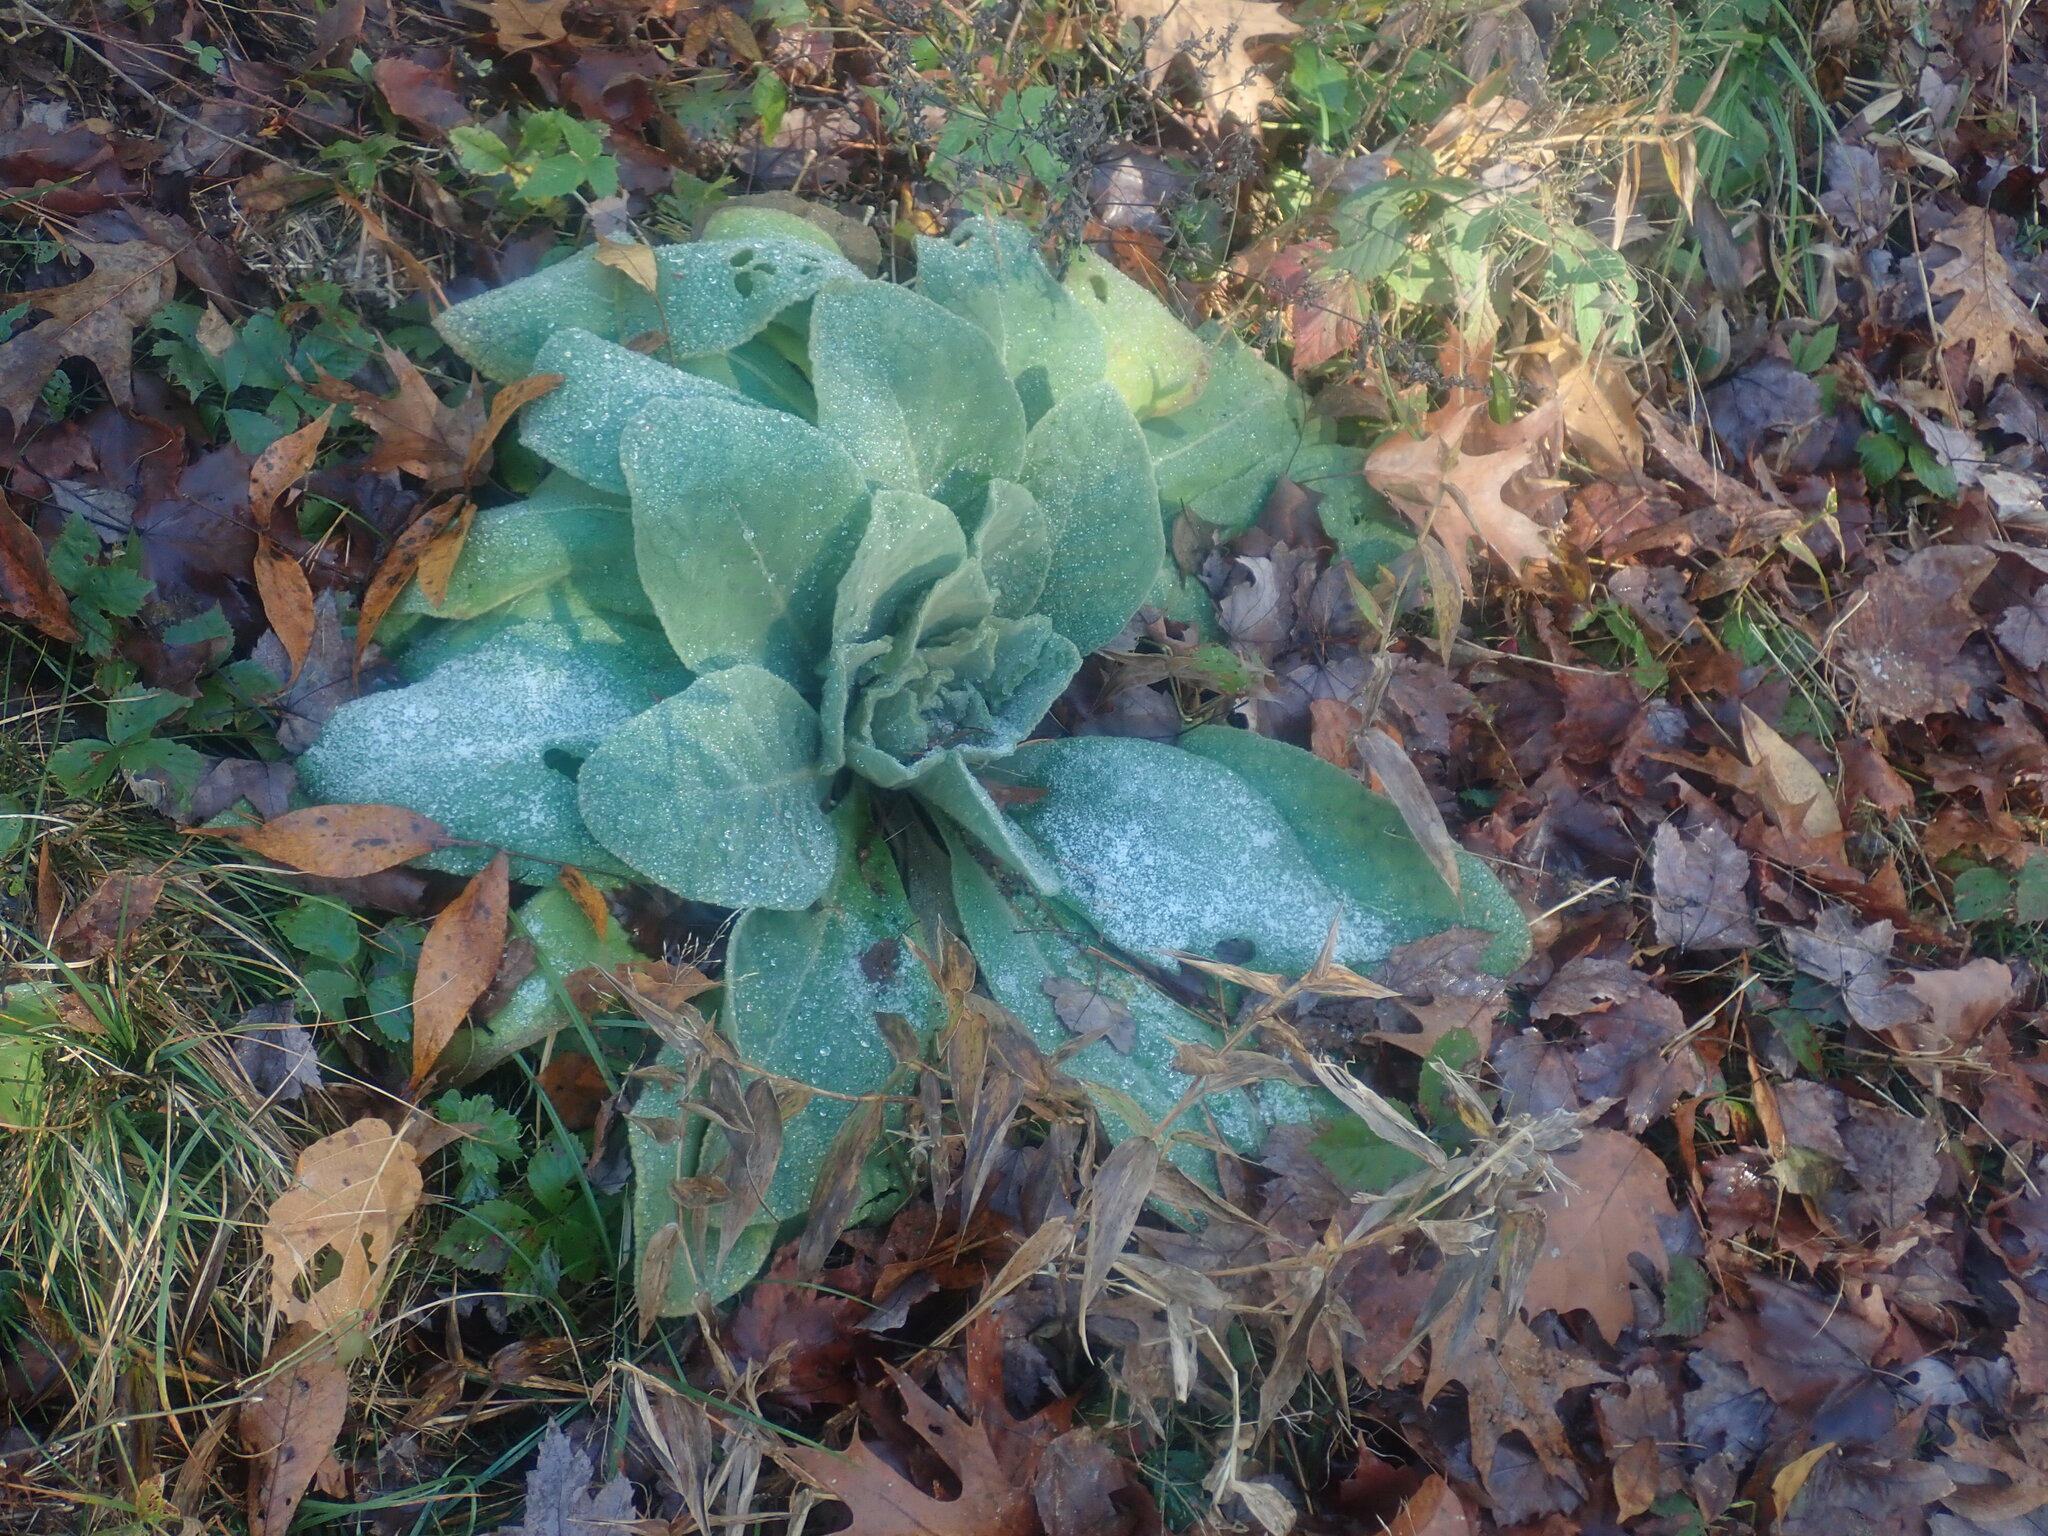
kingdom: Plantae
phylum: Tracheophyta
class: Magnoliopsida
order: Lamiales
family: Scrophulariaceae
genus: Verbascum
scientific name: Verbascum thapsus
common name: Common mullein
